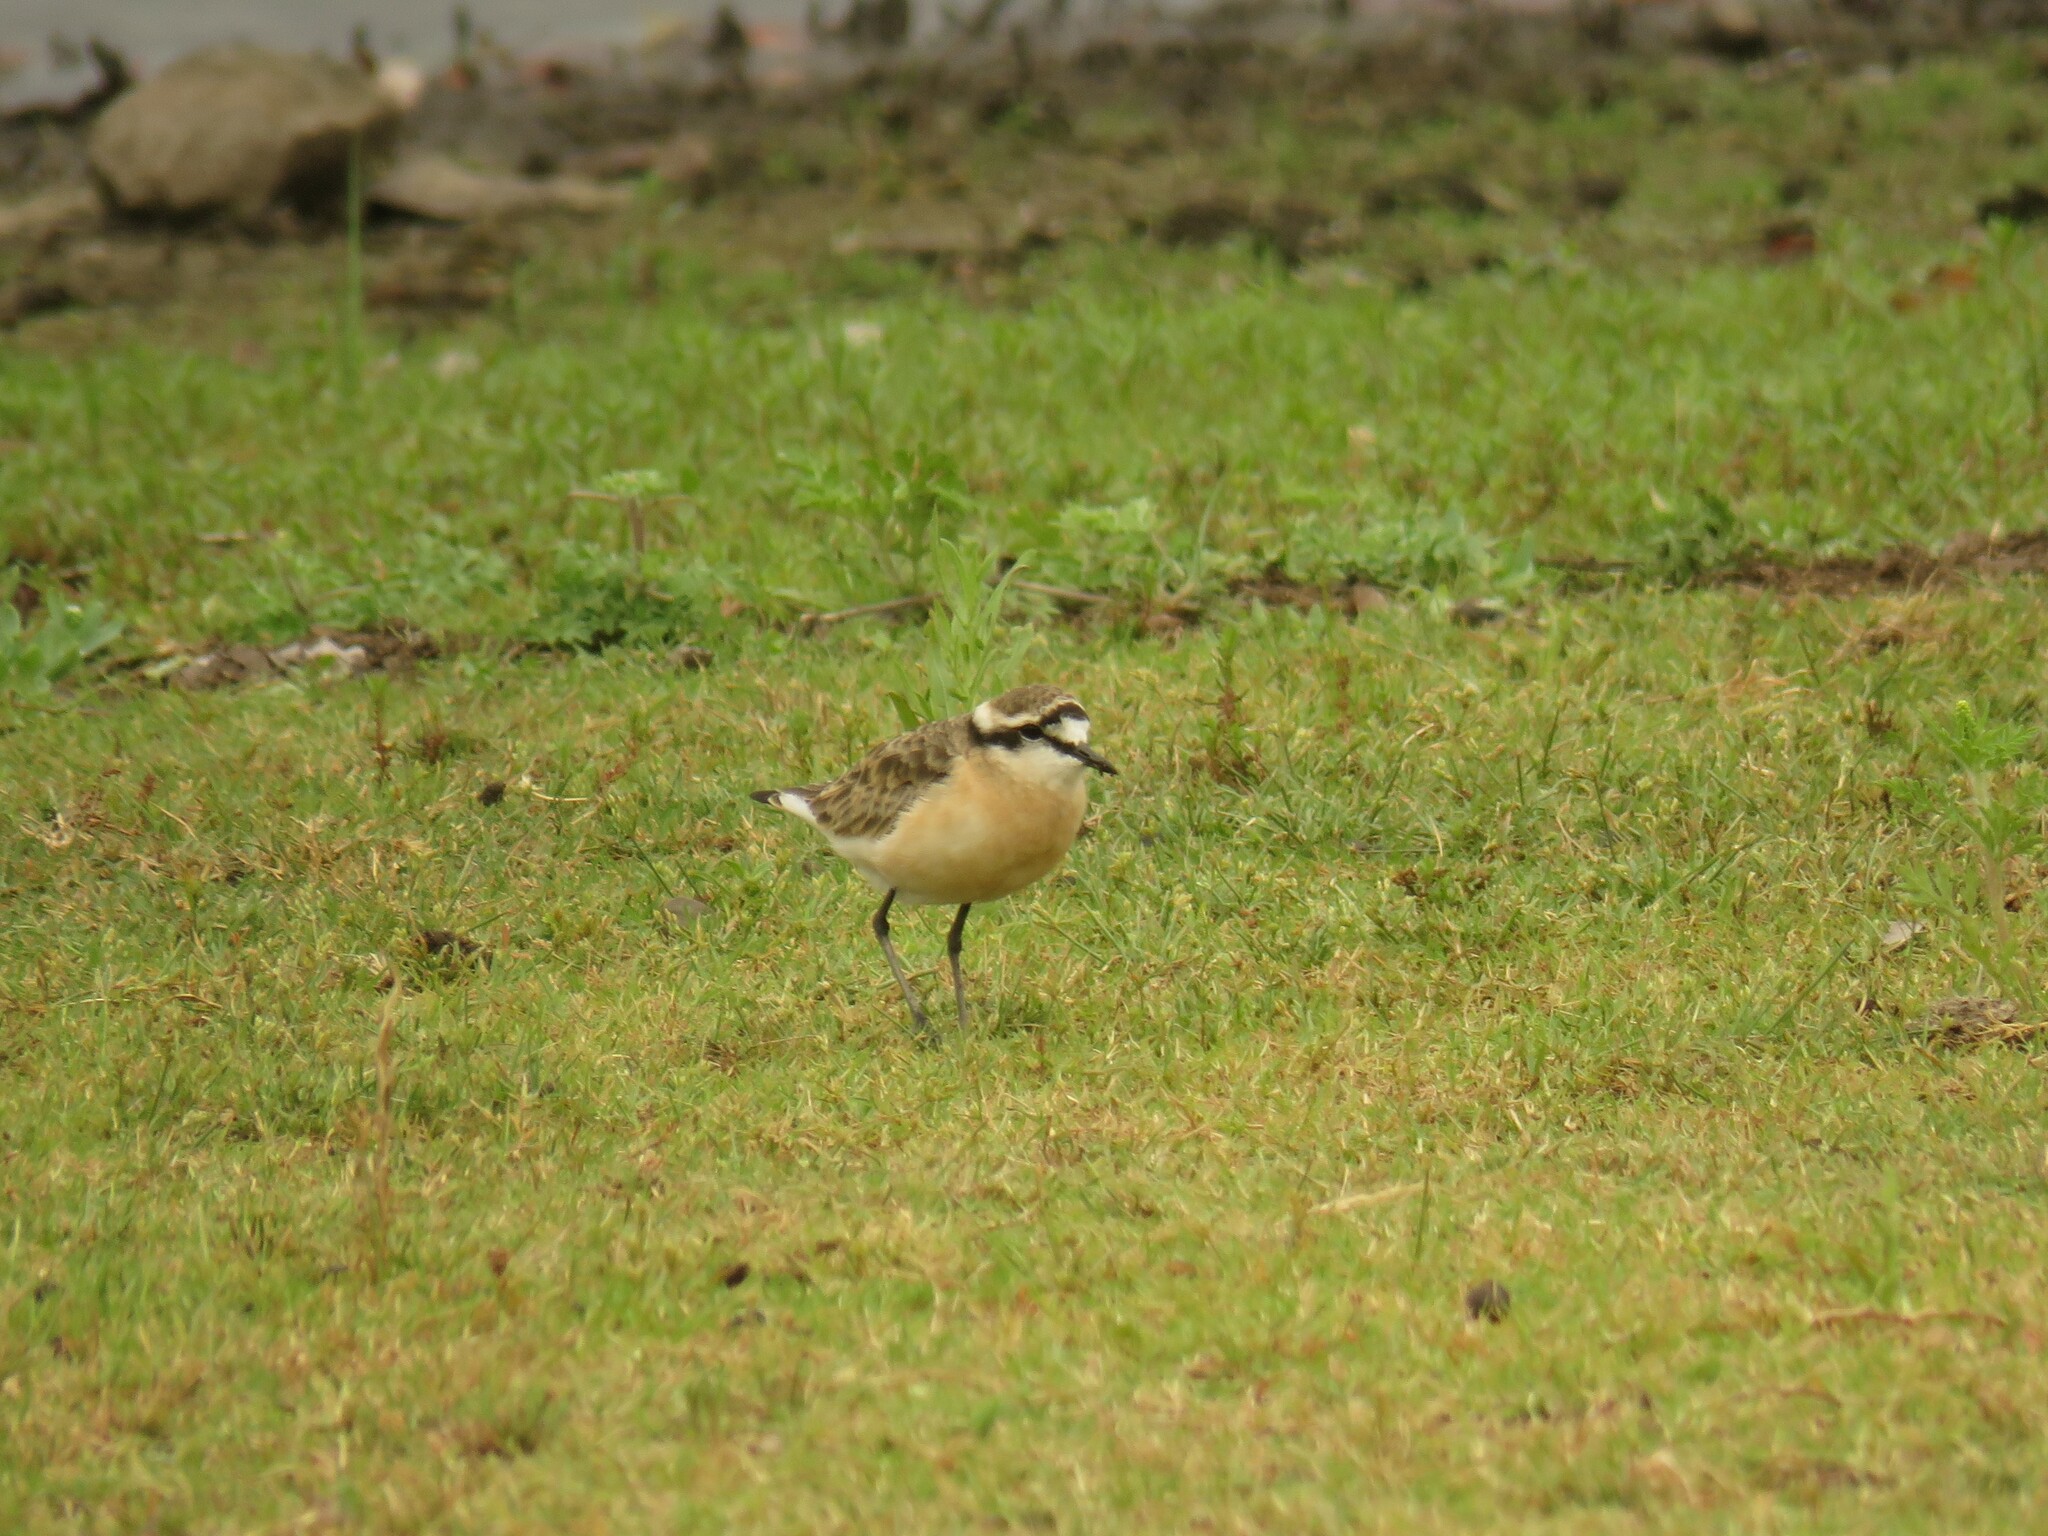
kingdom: Animalia
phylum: Chordata
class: Aves
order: Charadriiformes
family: Charadriidae
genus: Anarhynchus
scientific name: Anarhynchus
